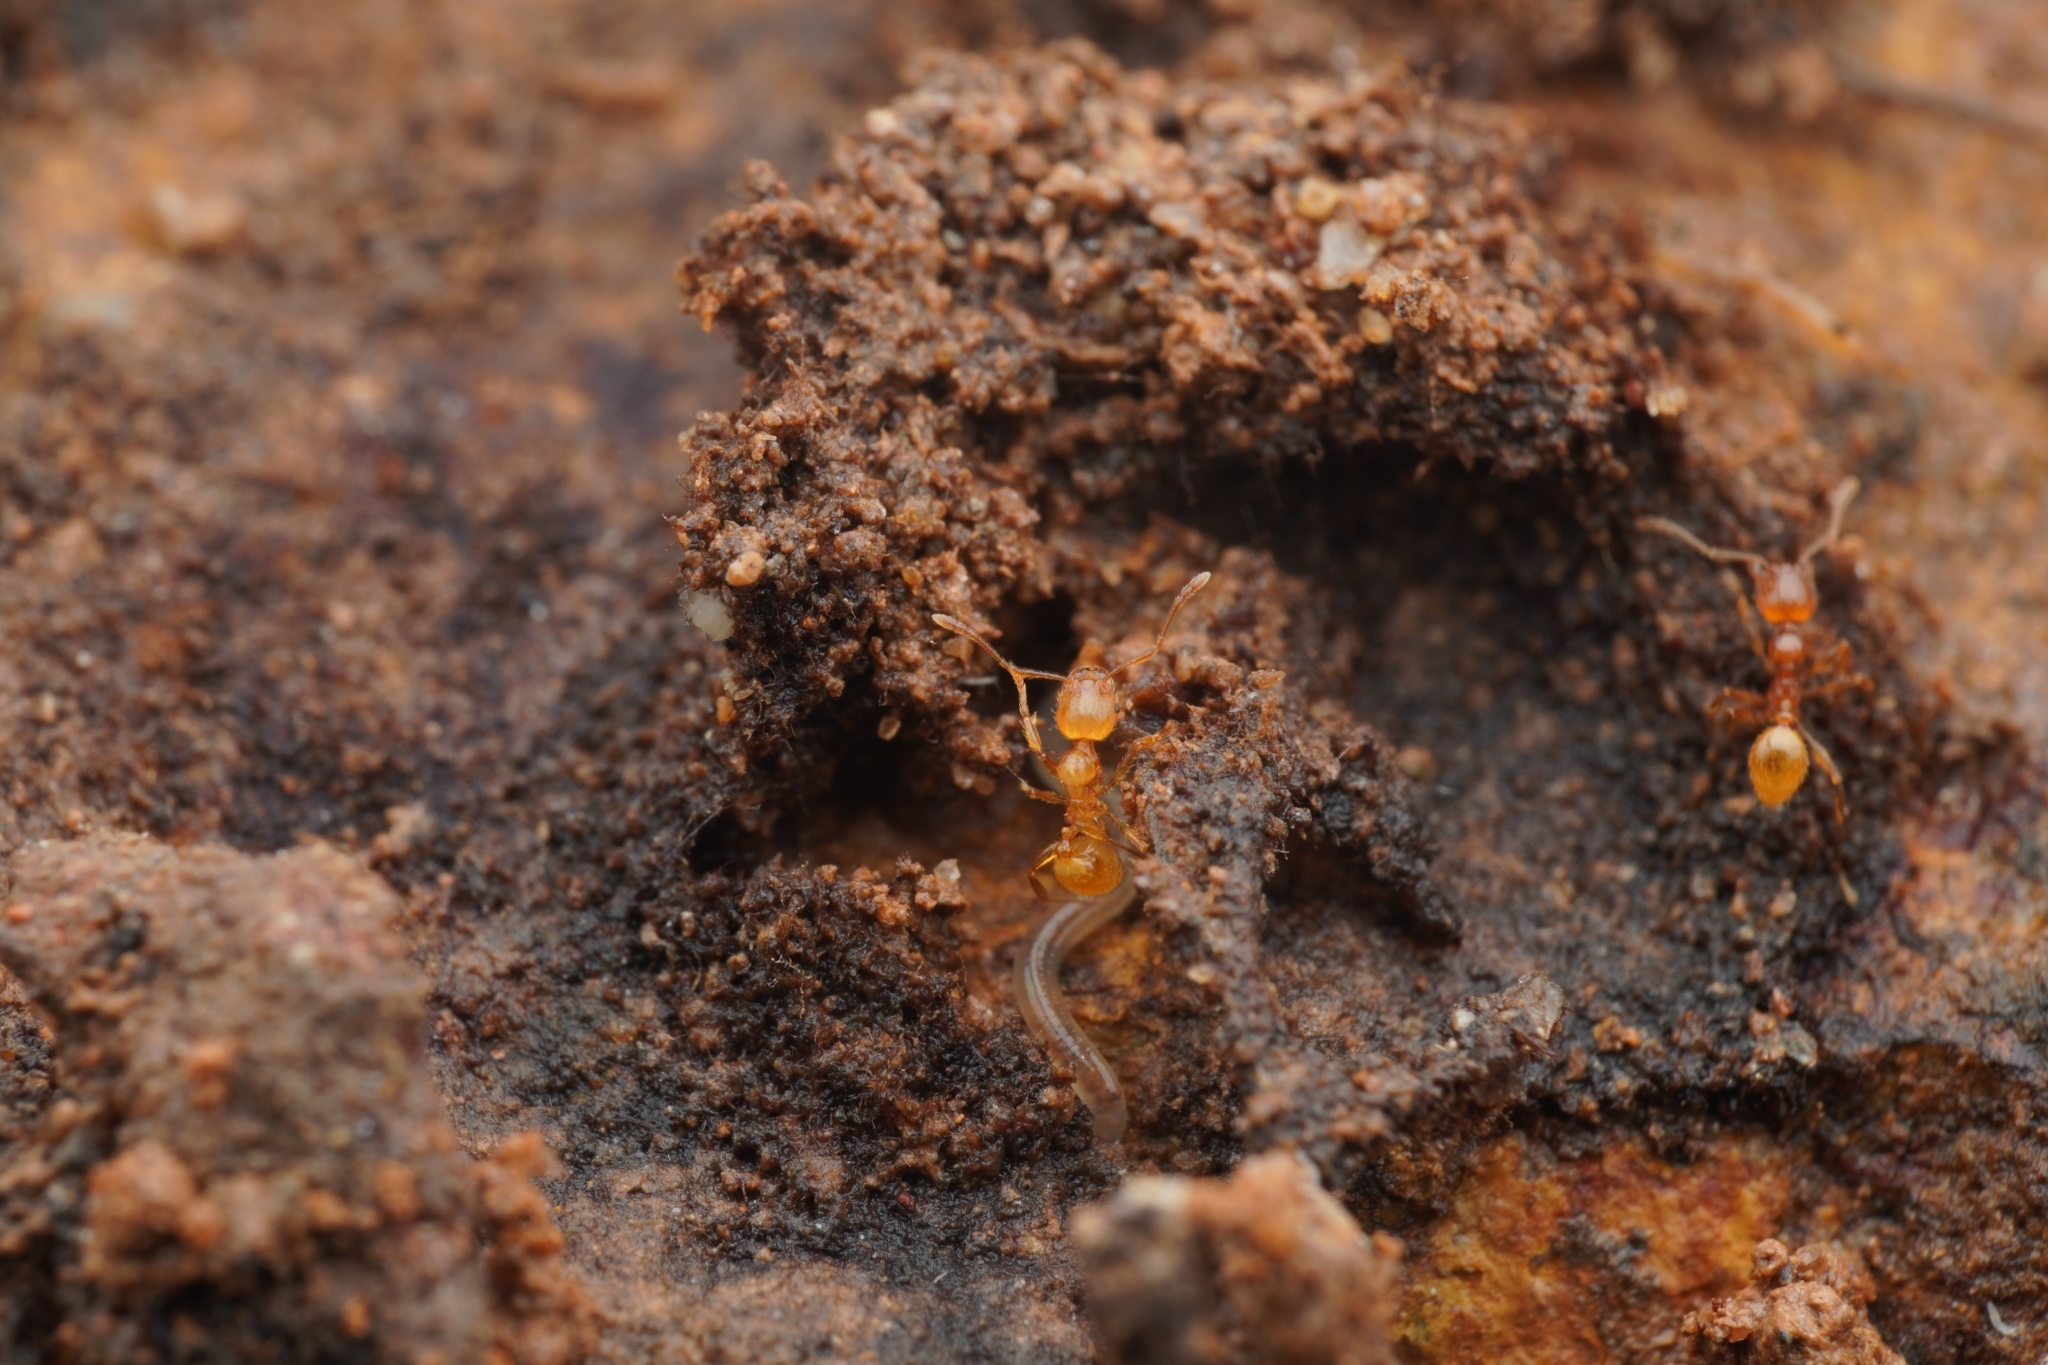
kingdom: Animalia
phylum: Arthropoda
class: Insecta
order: Hymenoptera
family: Formicidae
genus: Pheidole
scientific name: Pheidole fervida
